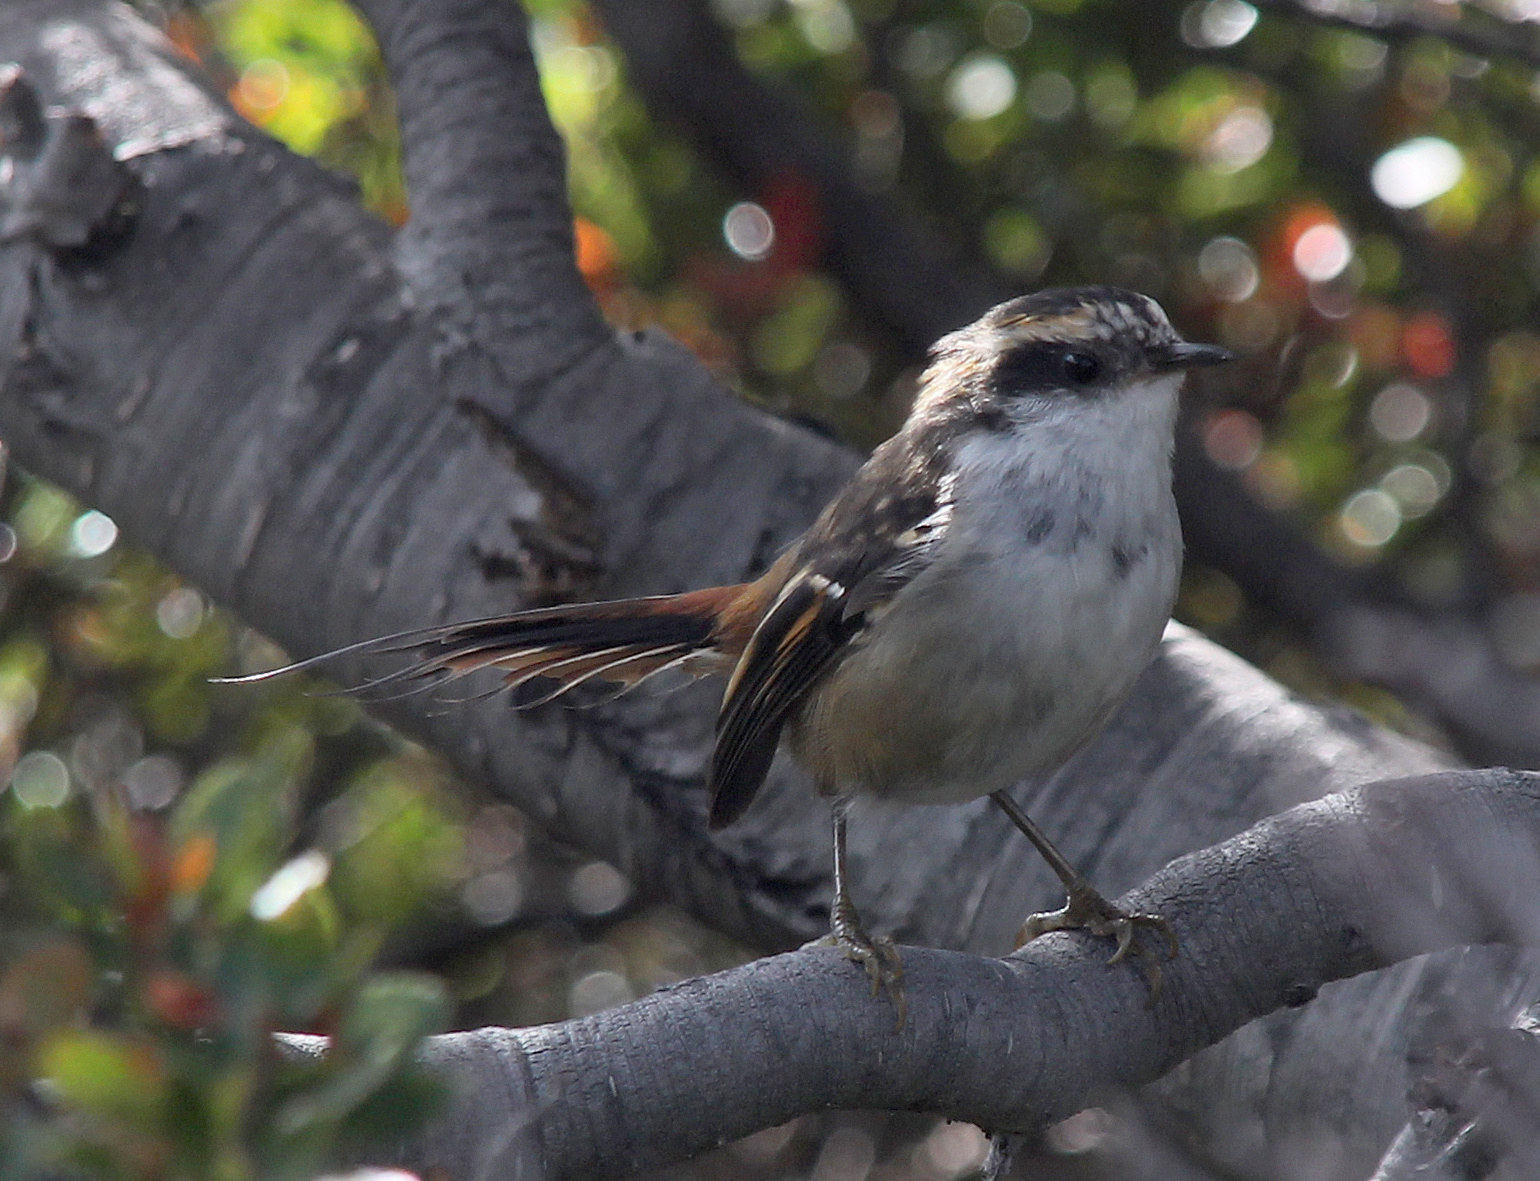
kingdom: Animalia
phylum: Chordata
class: Aves
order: Passeriformes
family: Furnariidae
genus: Aphrastura
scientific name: Aphrastura spinicauda
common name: Thorn-tailed rayadito
